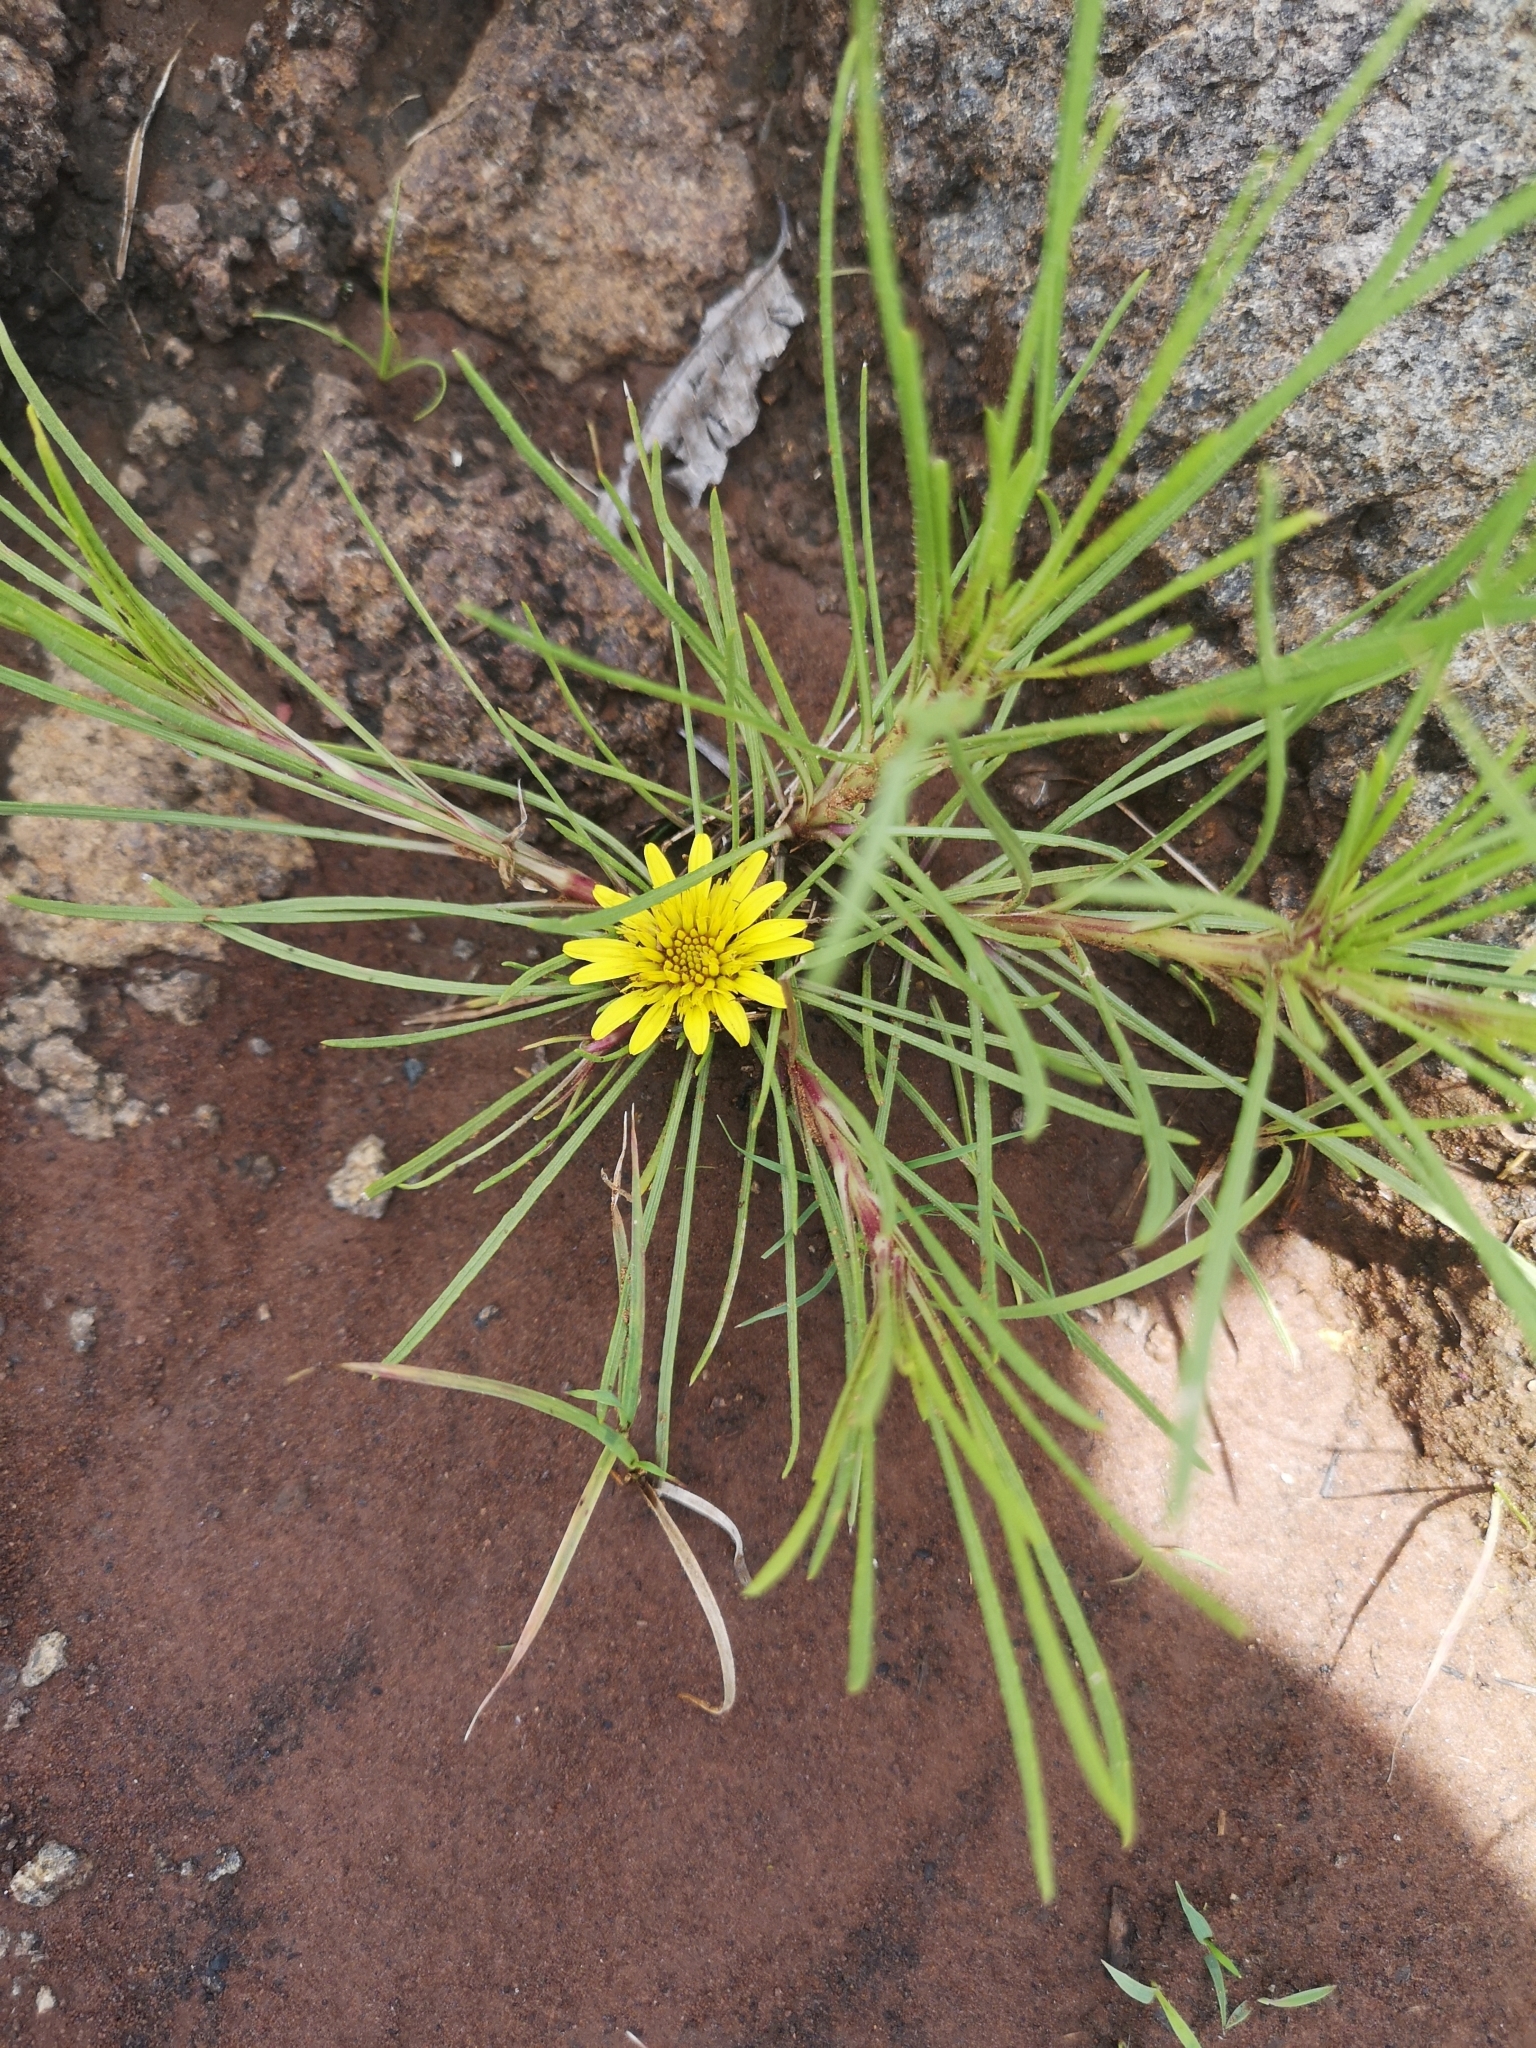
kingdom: Plantae
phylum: Tracheophyta
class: Magnoliopsida
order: Asterales
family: Asteraceae
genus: Geigeria
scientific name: Geigeria ornativa
